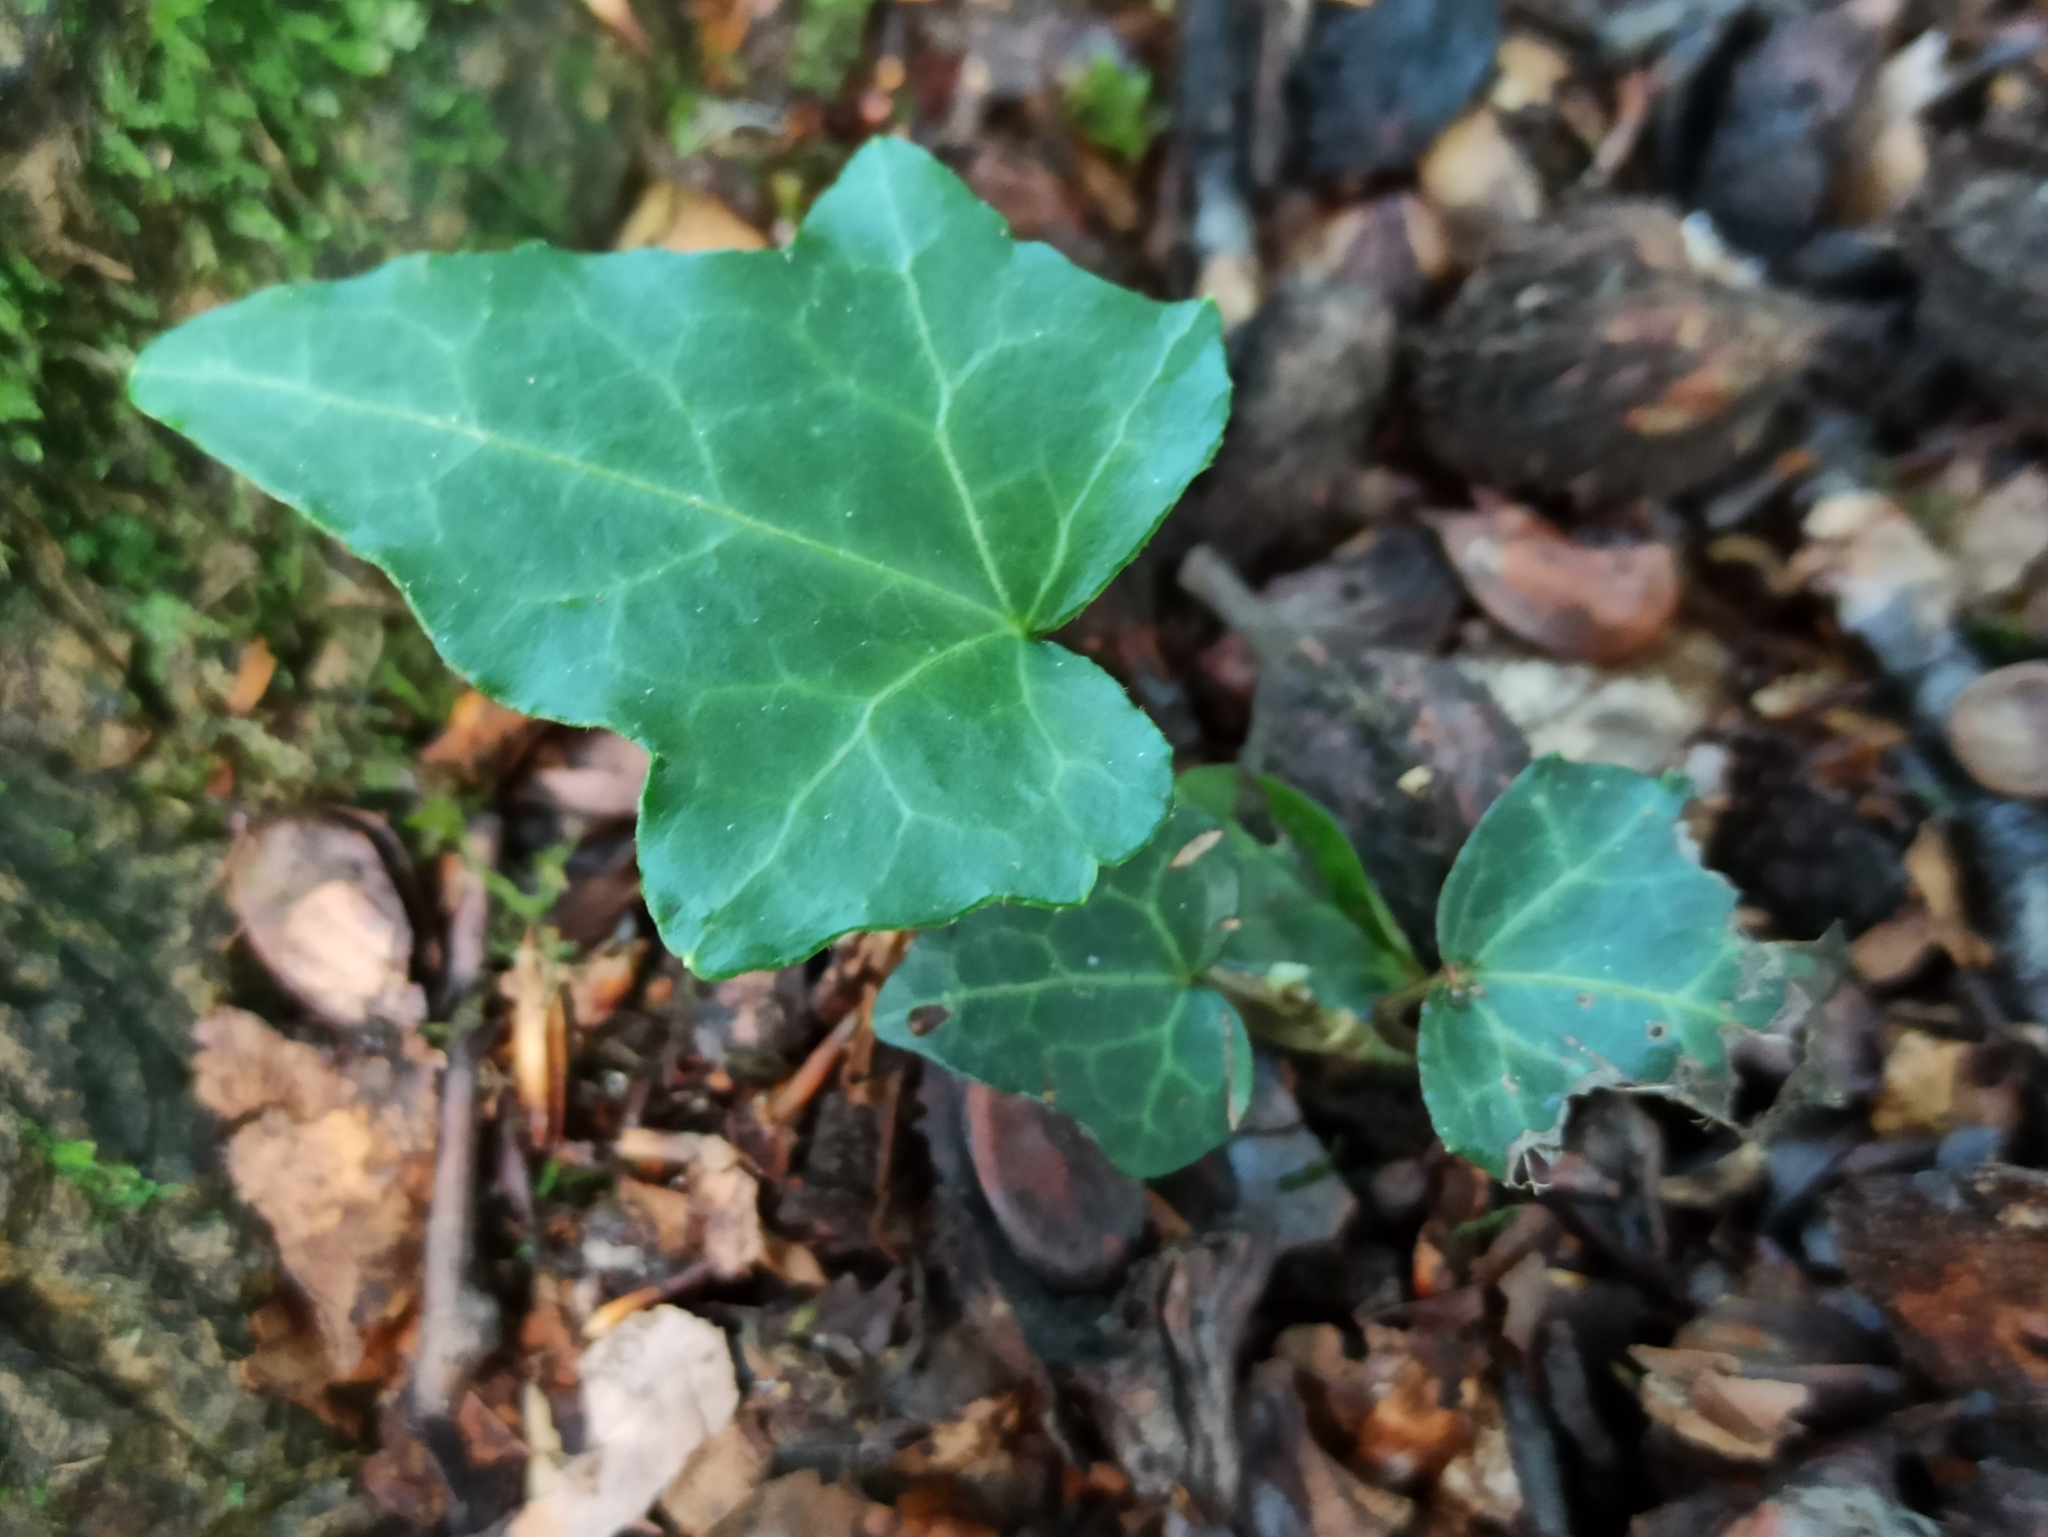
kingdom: Plantae
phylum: Tracheophyta
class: Magnoliopsida
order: Apiales
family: Araliaceae
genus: Hedera
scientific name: Hedera helix
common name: Ivy
